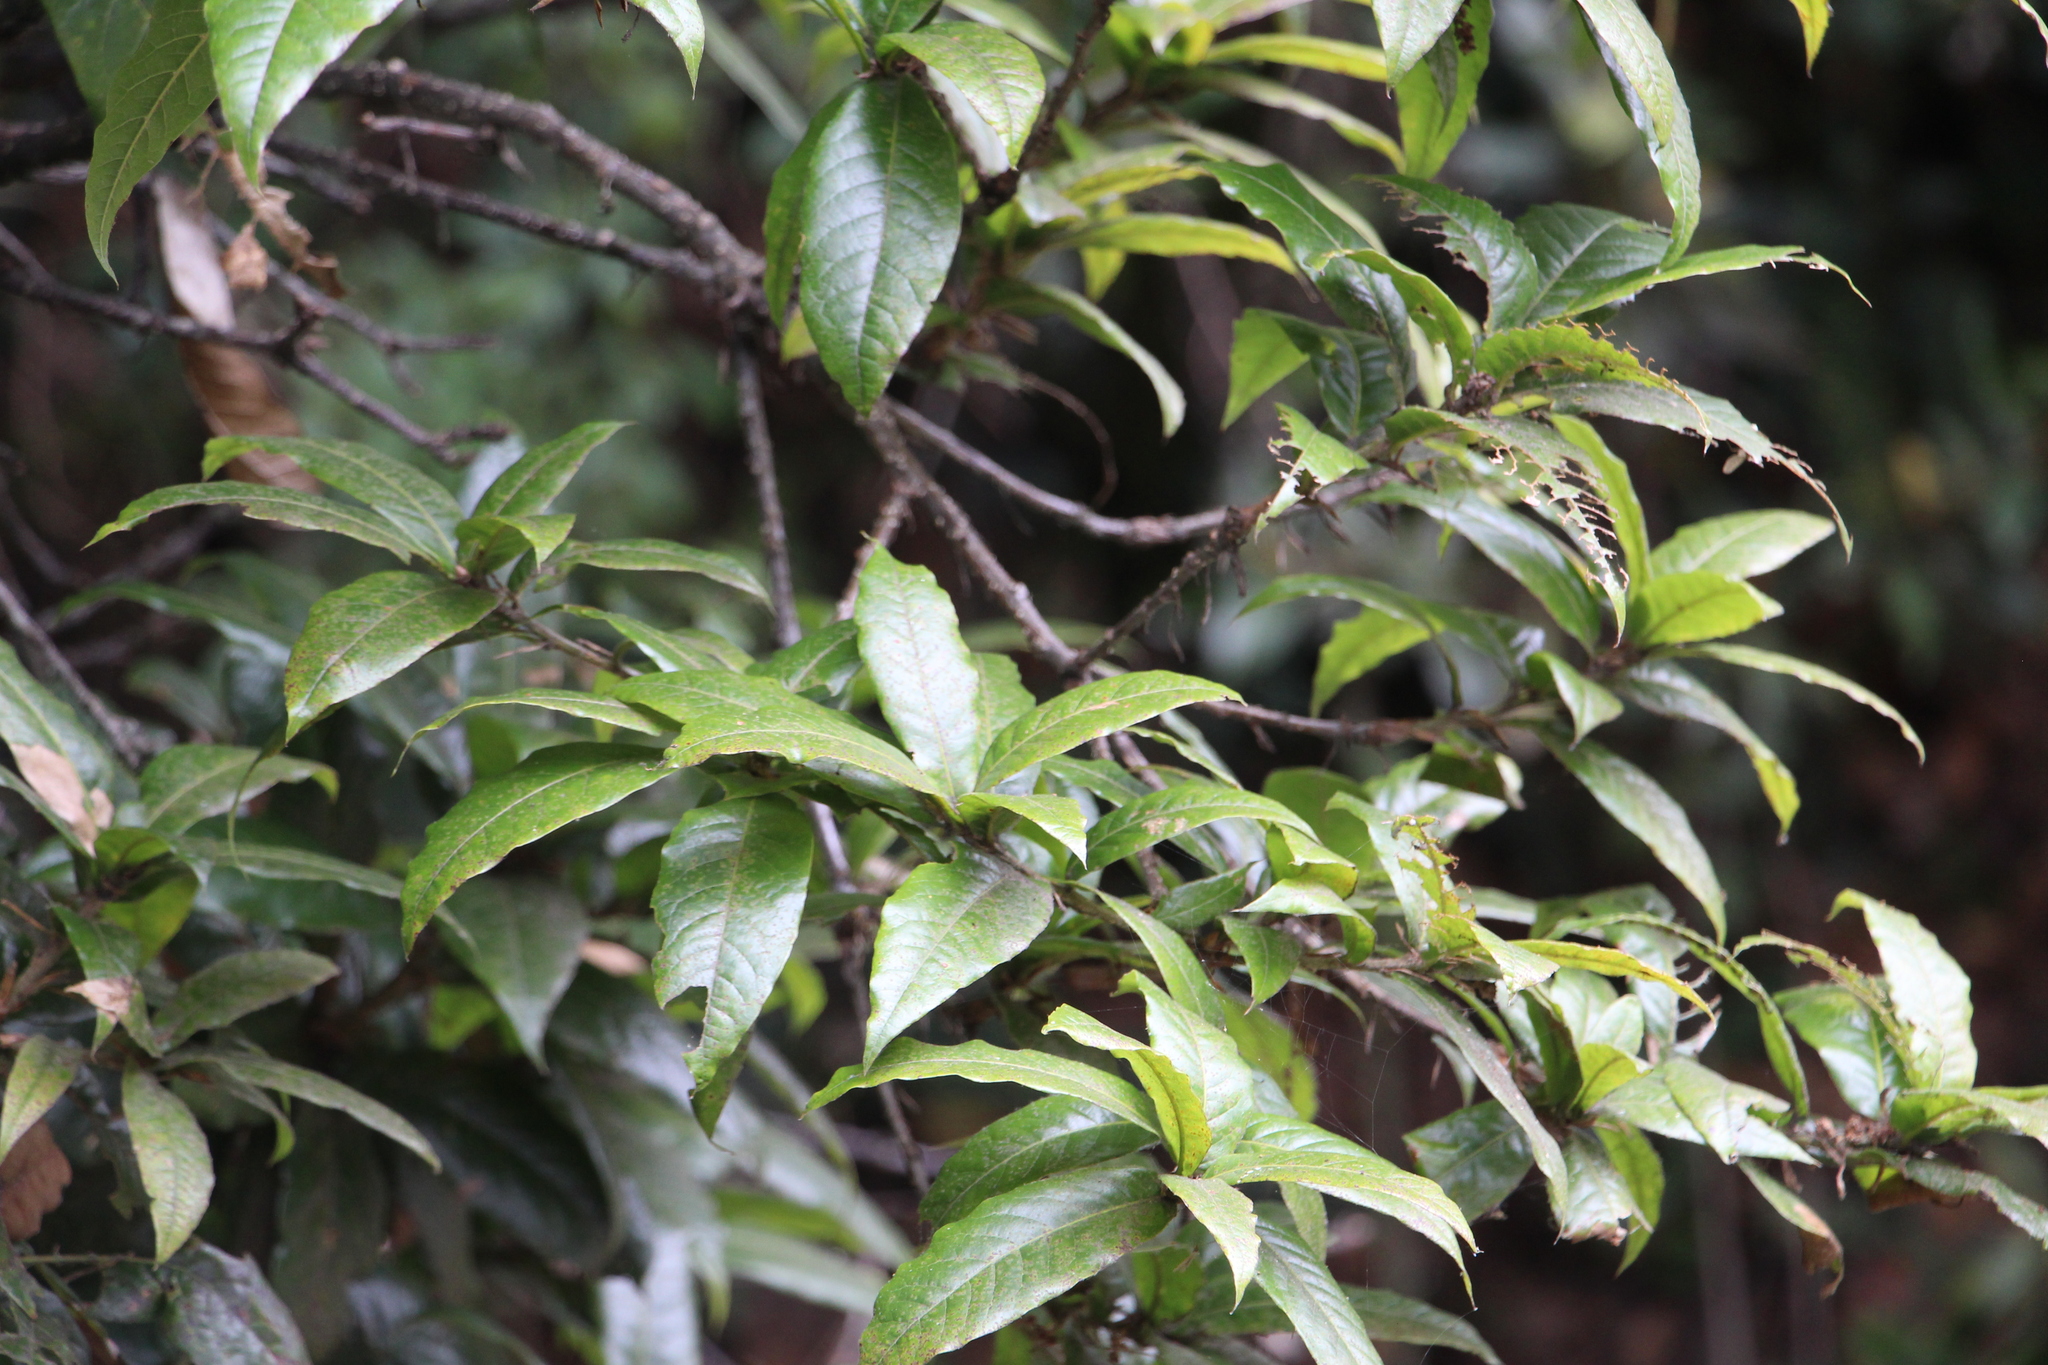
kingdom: Plantae
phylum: Tracheophyta
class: Magnoliopsida
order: Fagales
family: Fagaceae
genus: Quercus
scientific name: Quercus humboldtii
